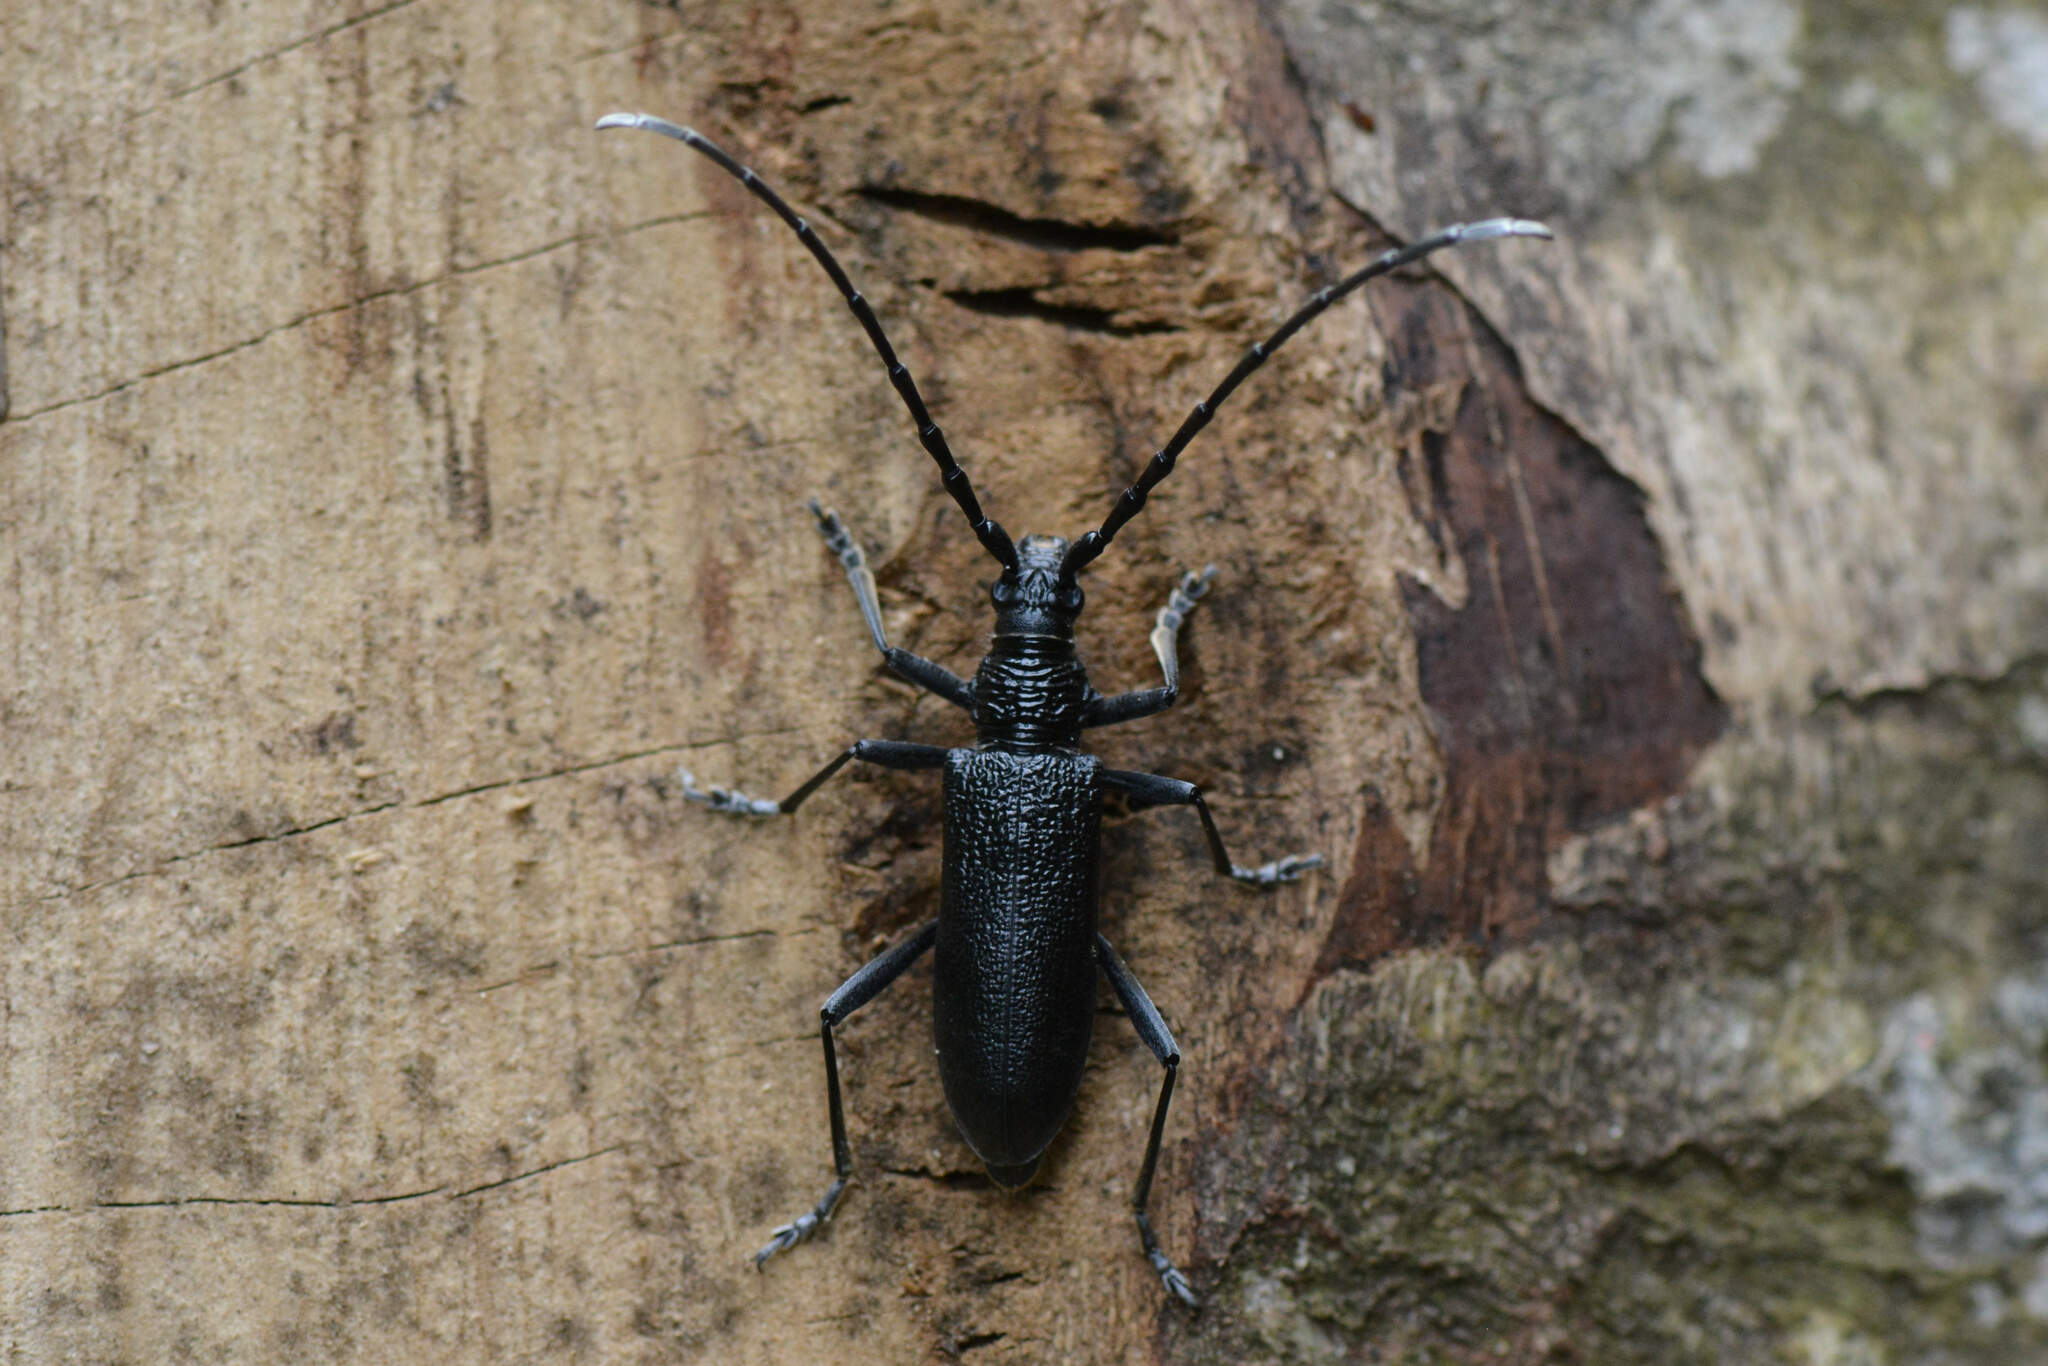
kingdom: Animalia
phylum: Arthropoda
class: Insecta
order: Coleoptera
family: Cerambycidae
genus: Cerambyx
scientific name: Cerambyx scopolii
